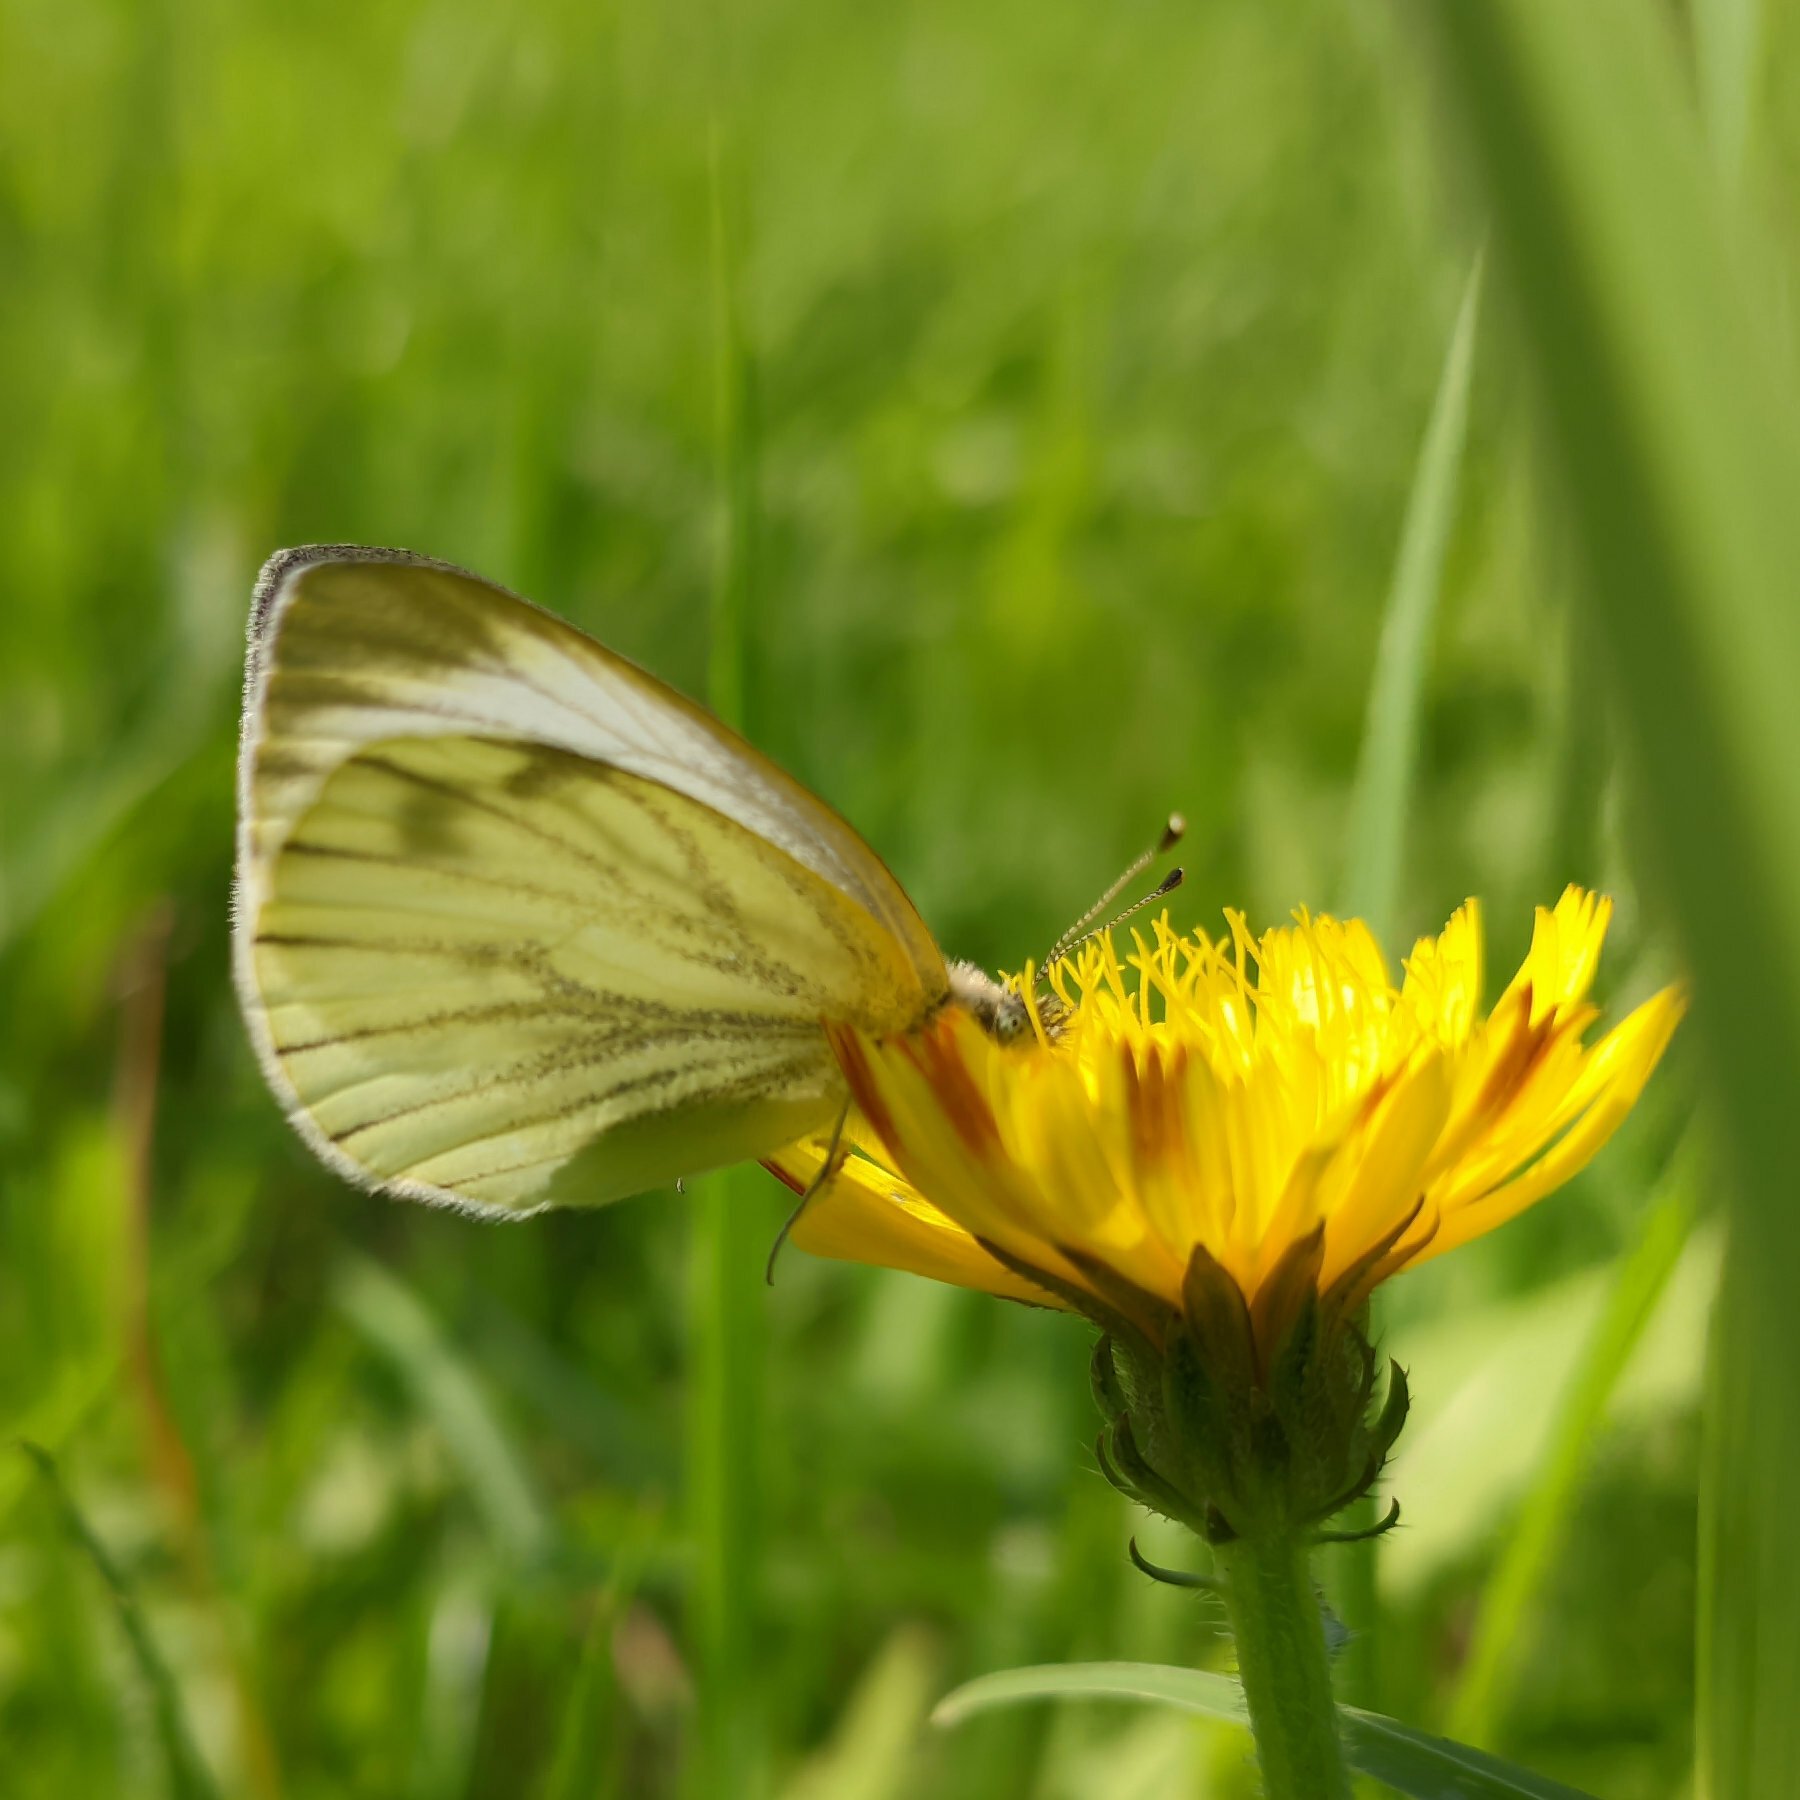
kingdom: Animalia
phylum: Arthropoda
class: Insecta
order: Lepidoptera
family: Pieridae
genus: Pieris
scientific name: Pieris napi
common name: Green-veined white
